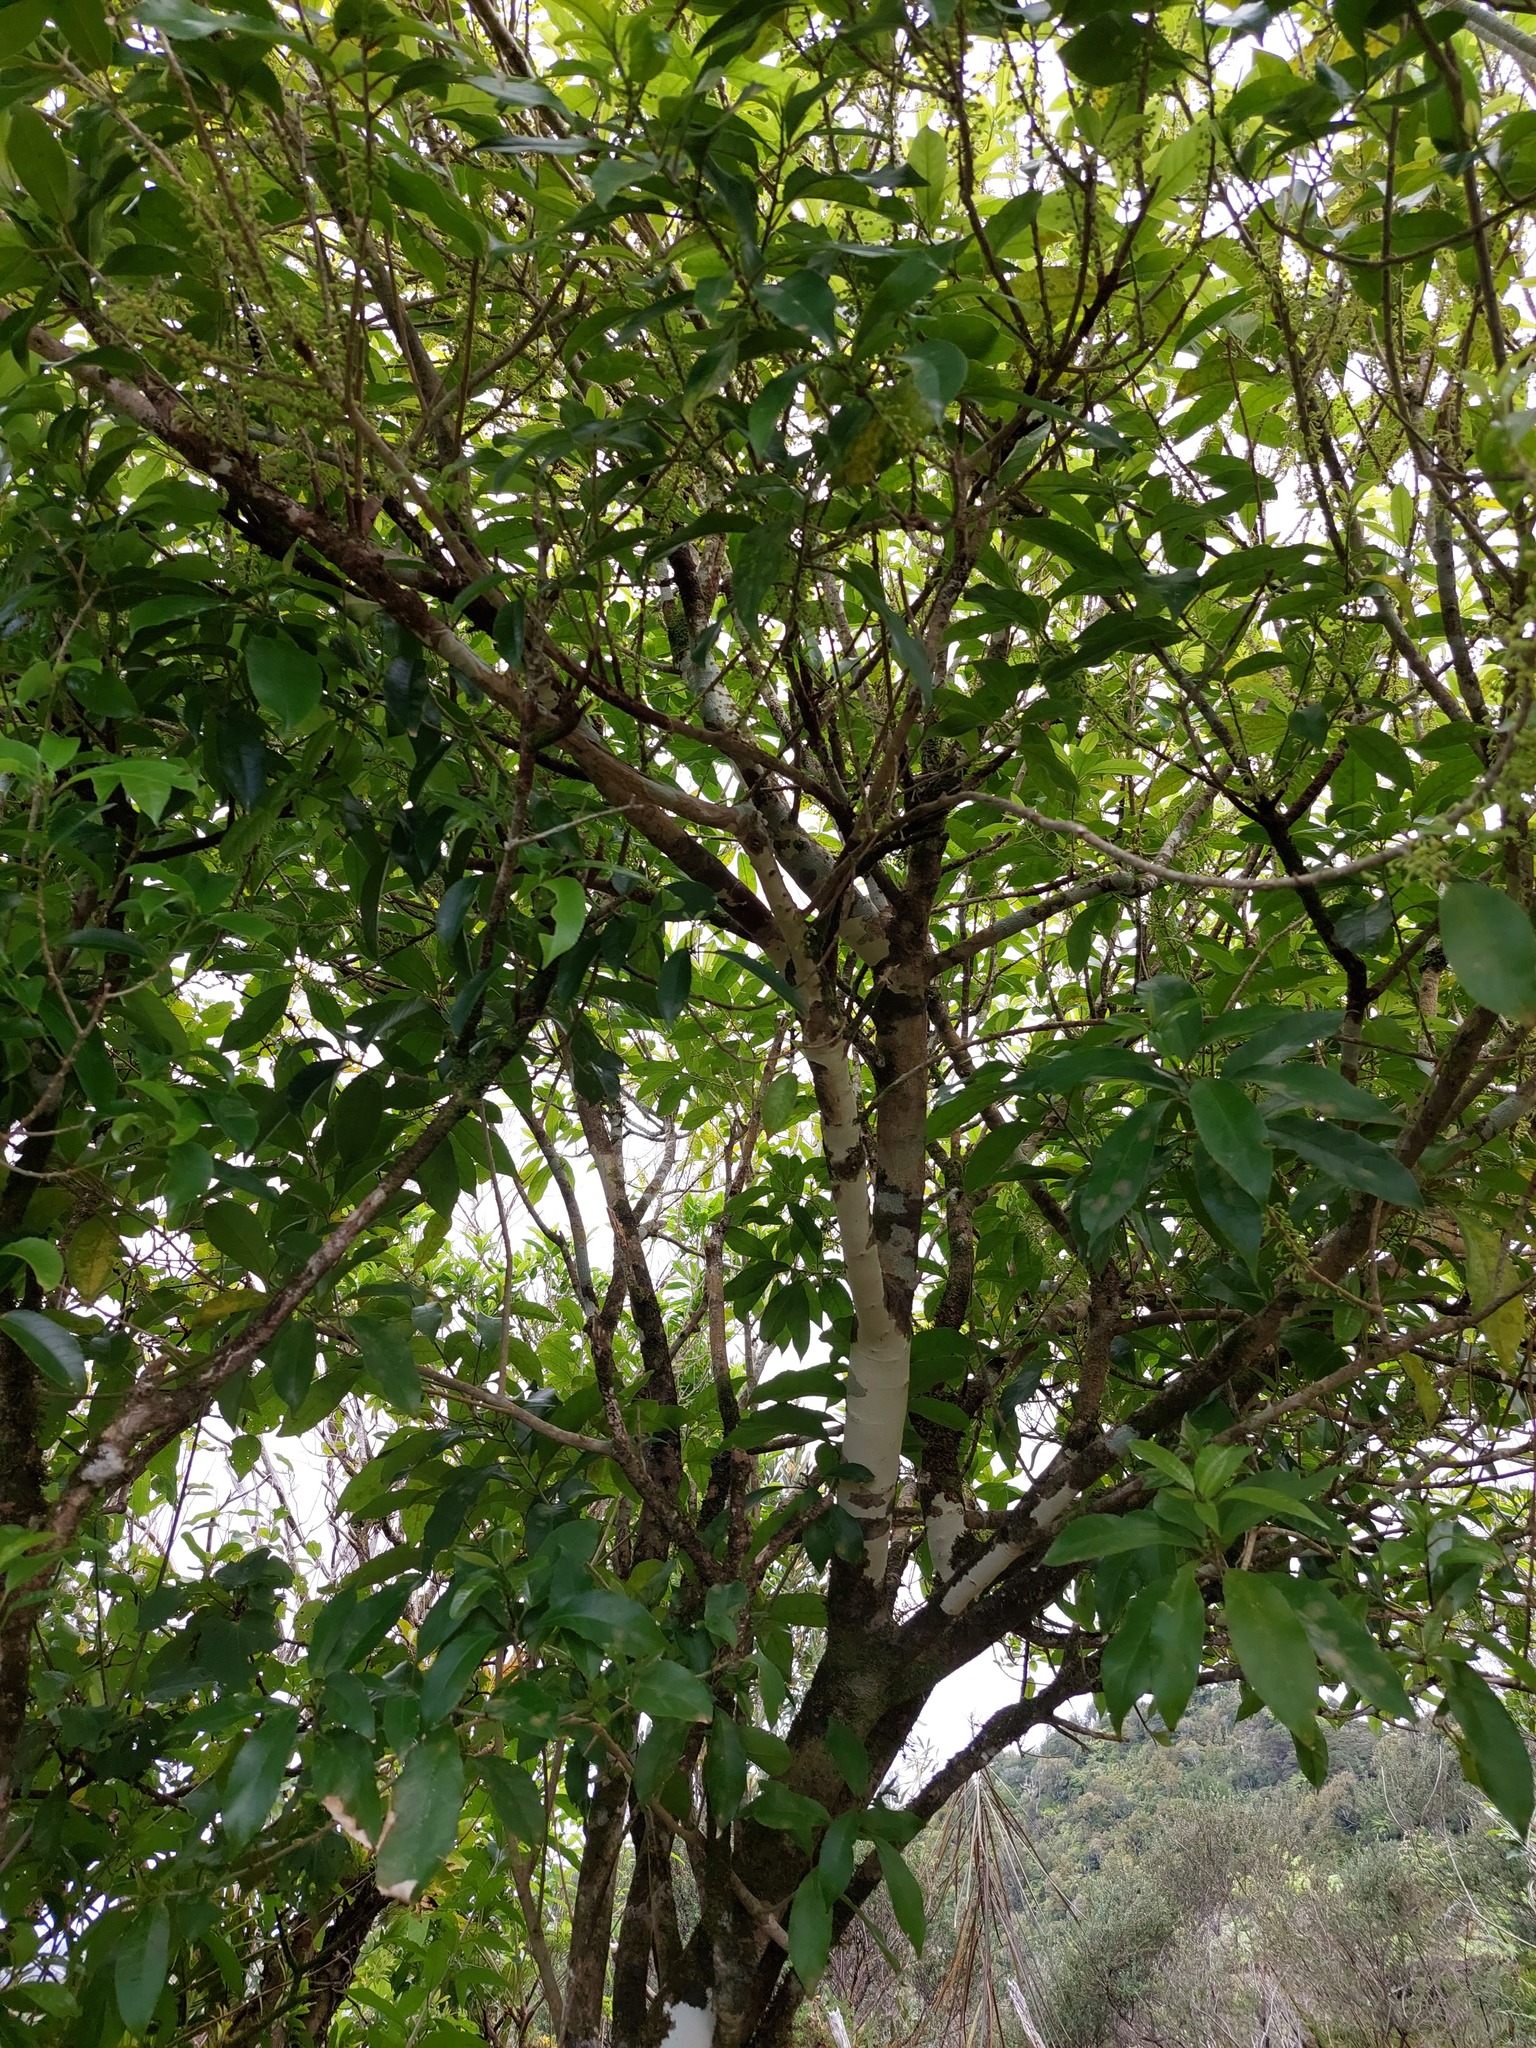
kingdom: Plantae
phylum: Tracheophyta
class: Magnoliopsida
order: Malpighiales
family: Violaceae
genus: Melicytus
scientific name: Melicytus ramiflorus
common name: Mahoe
